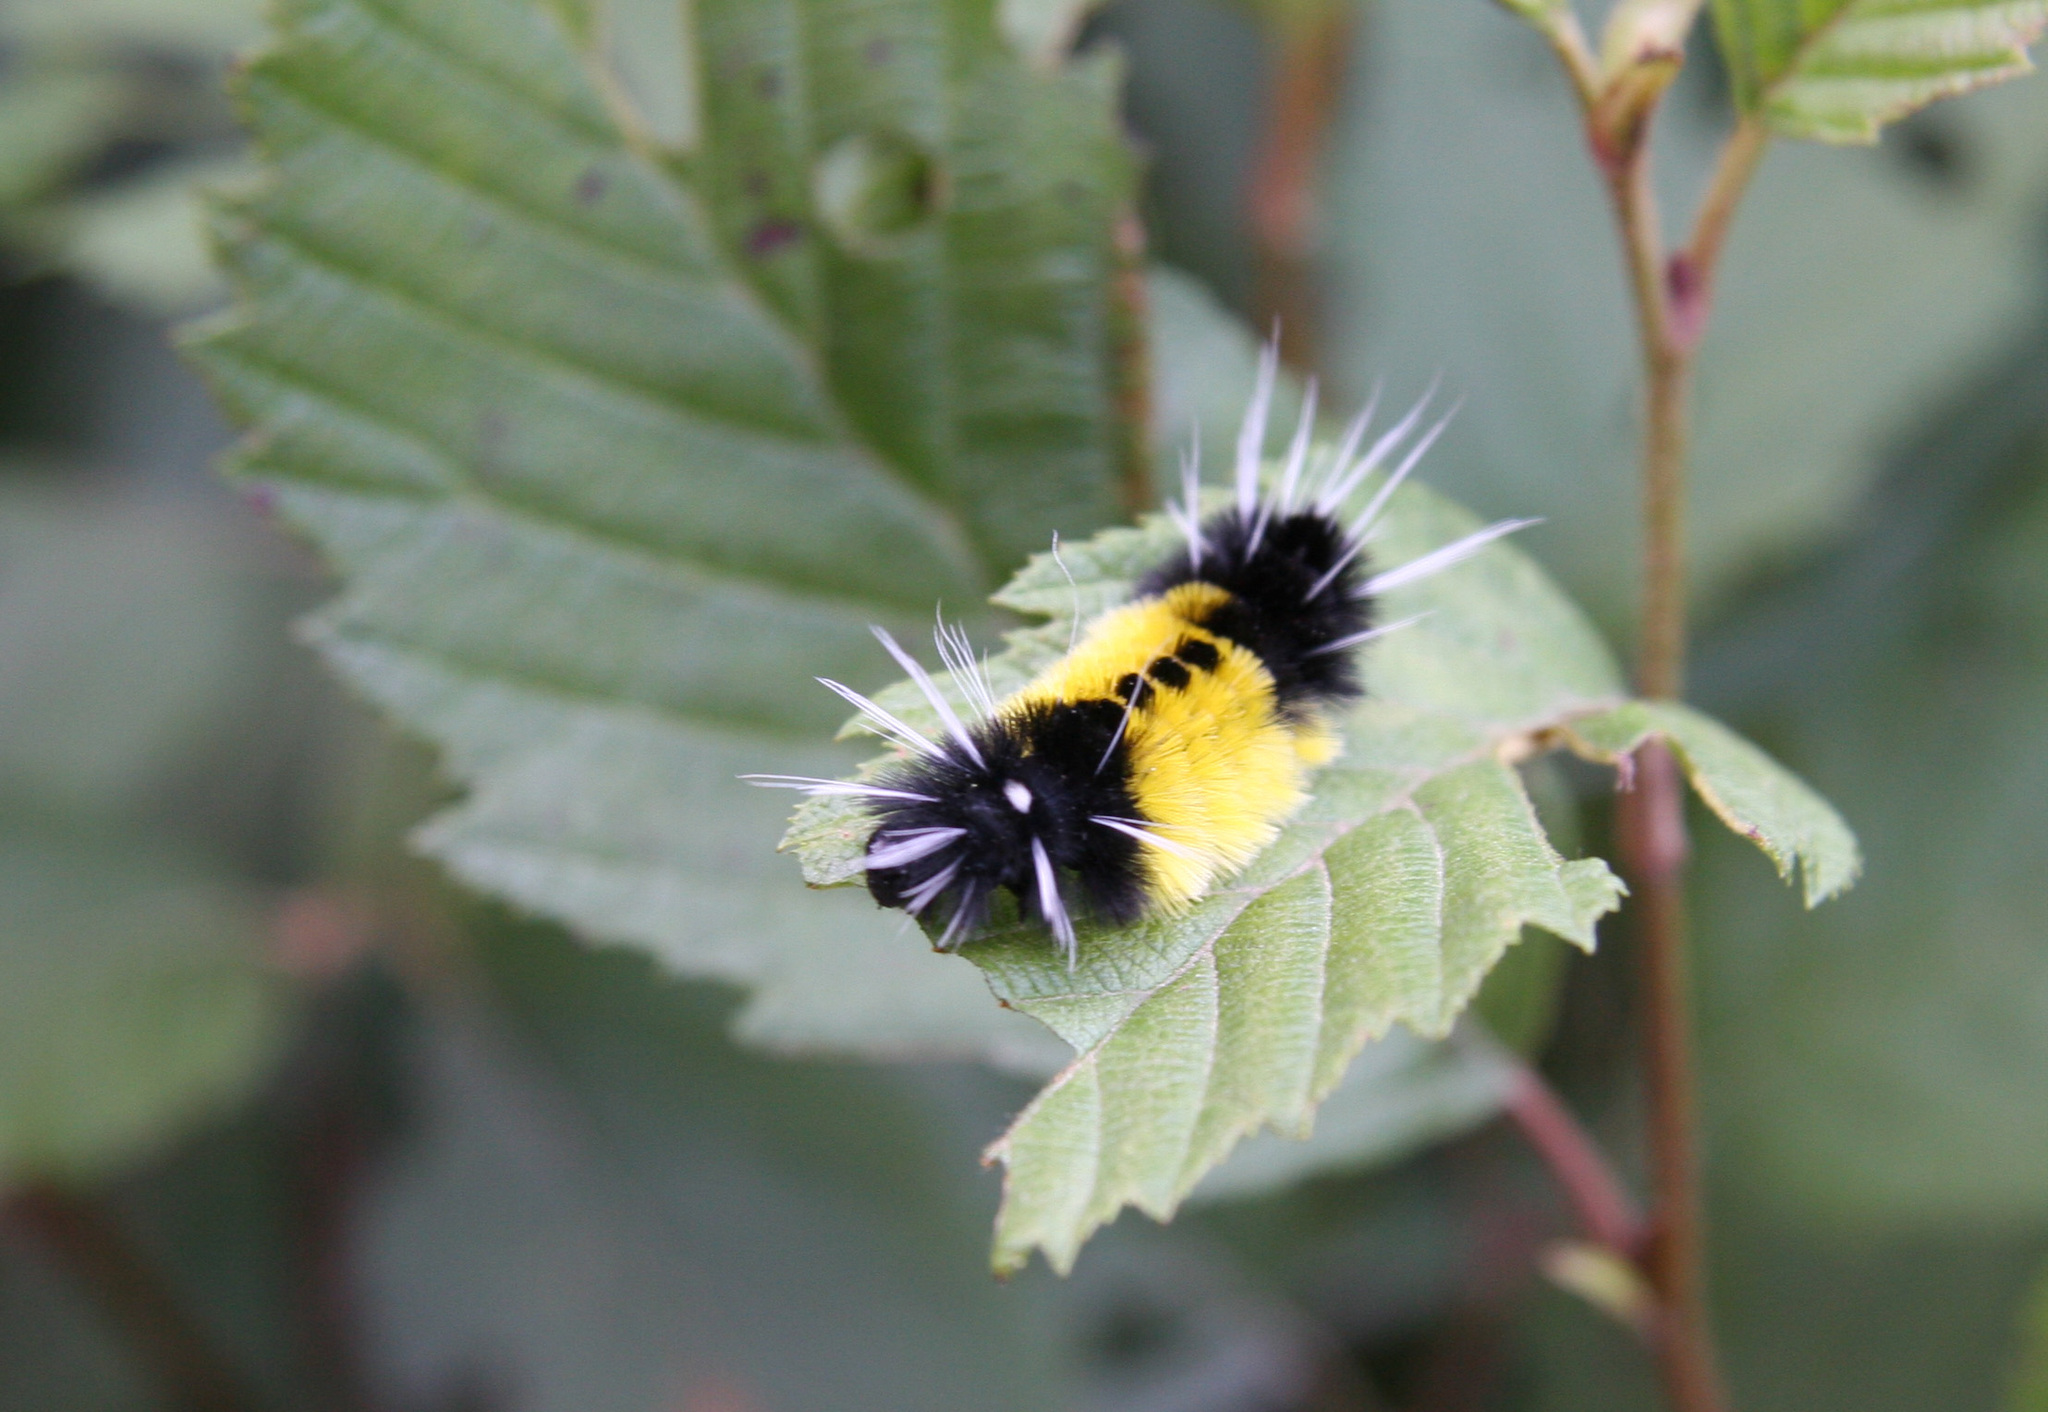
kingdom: Animalia
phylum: Arthropoda
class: Insecta
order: Lepidoptera
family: Erebidae
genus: Lophocampa
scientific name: Lophocampa maculata
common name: Spotted tussock moth
